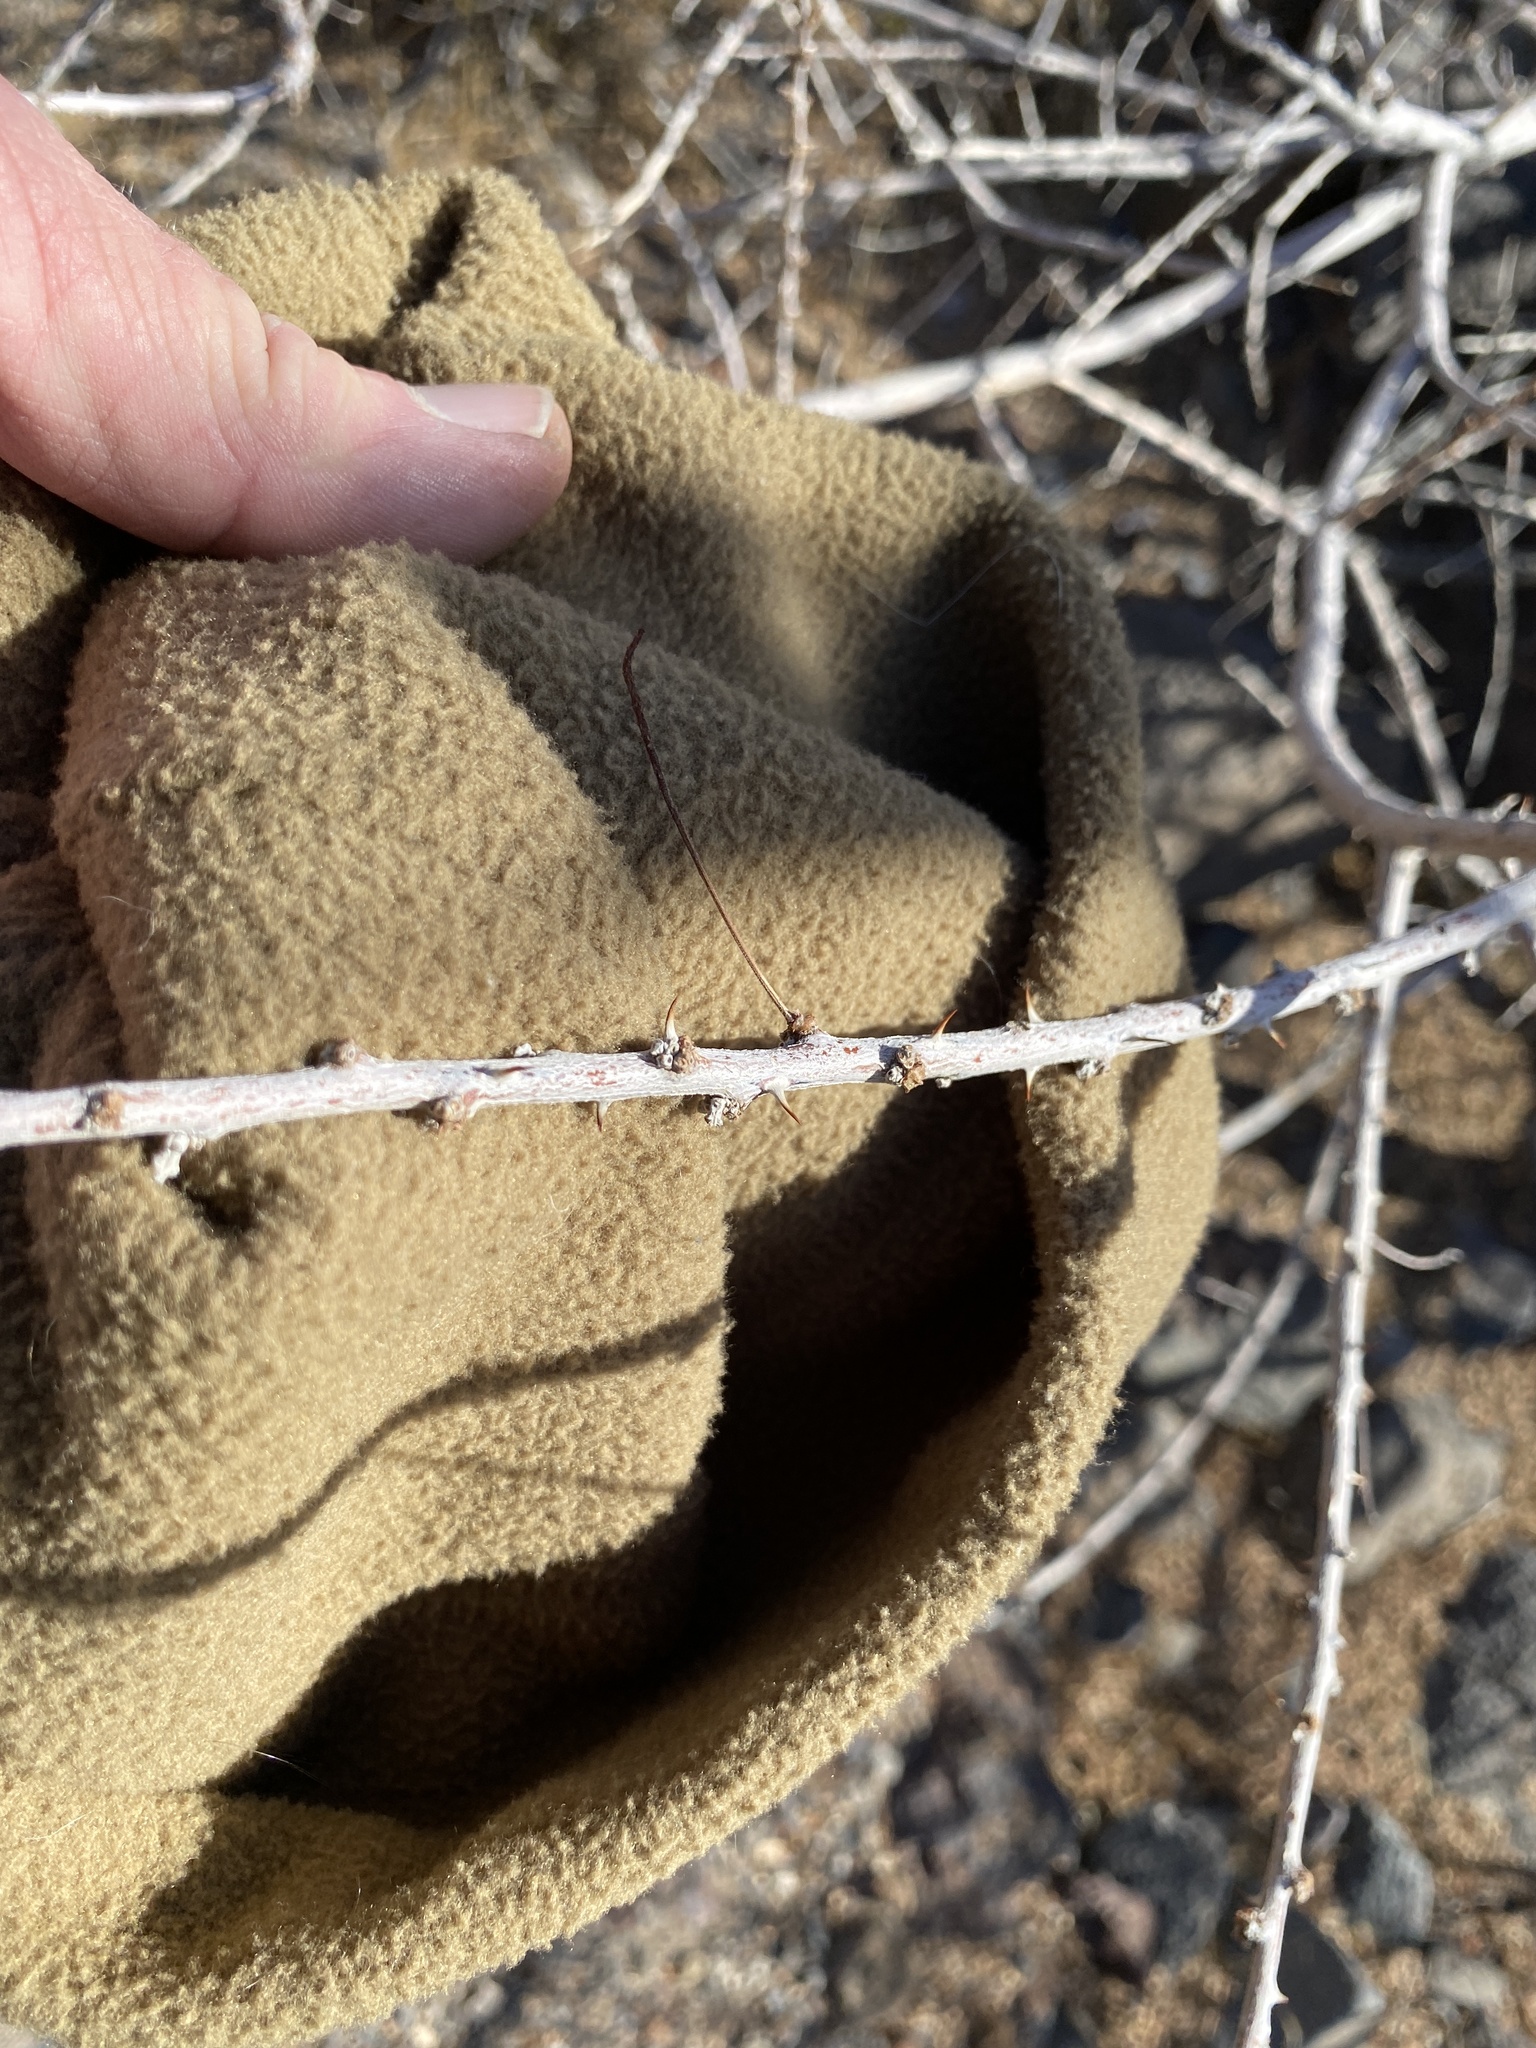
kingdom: Plantae
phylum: Tracheophyta
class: Magnoliopsida
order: Fabales
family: Fabaceae
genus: Senegalia
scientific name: Senegalia greggii
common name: Texas-mimosa
